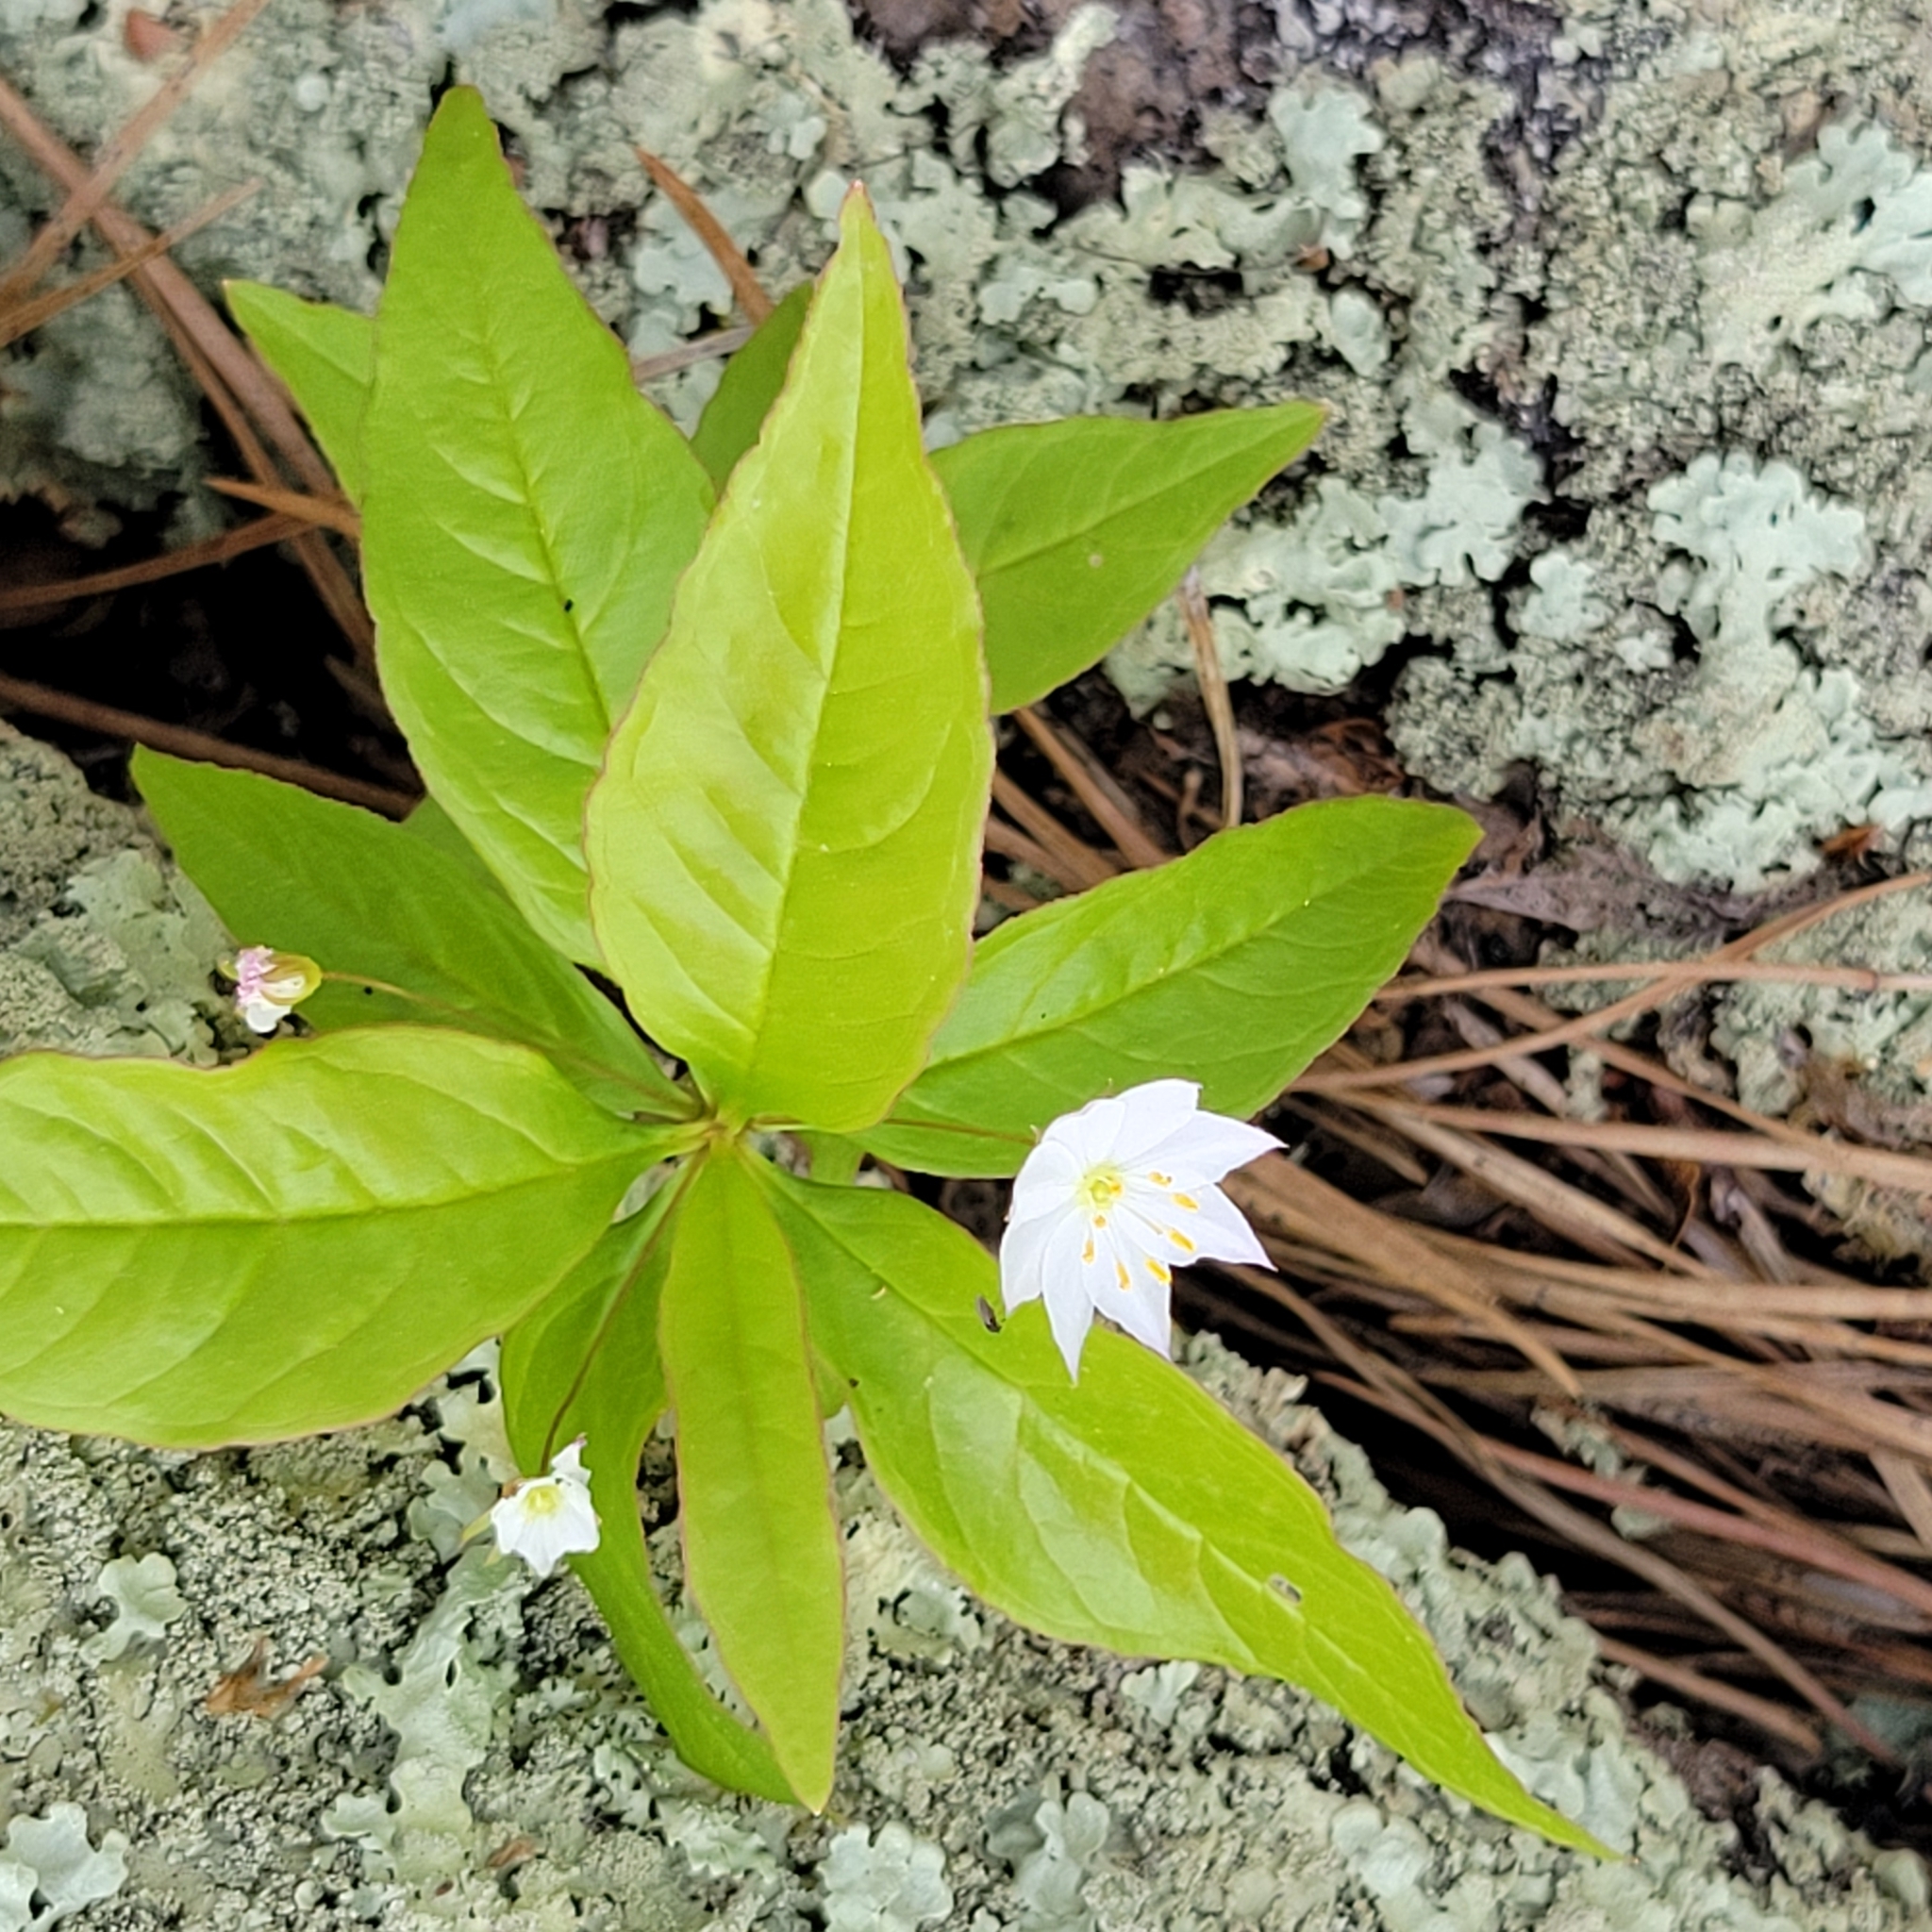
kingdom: Plantae
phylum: Tracheophyta
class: Magnoliopsida
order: Ericales
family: Primulaceae
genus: Lysimachia
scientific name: Lysimachia borealis
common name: American starflower
